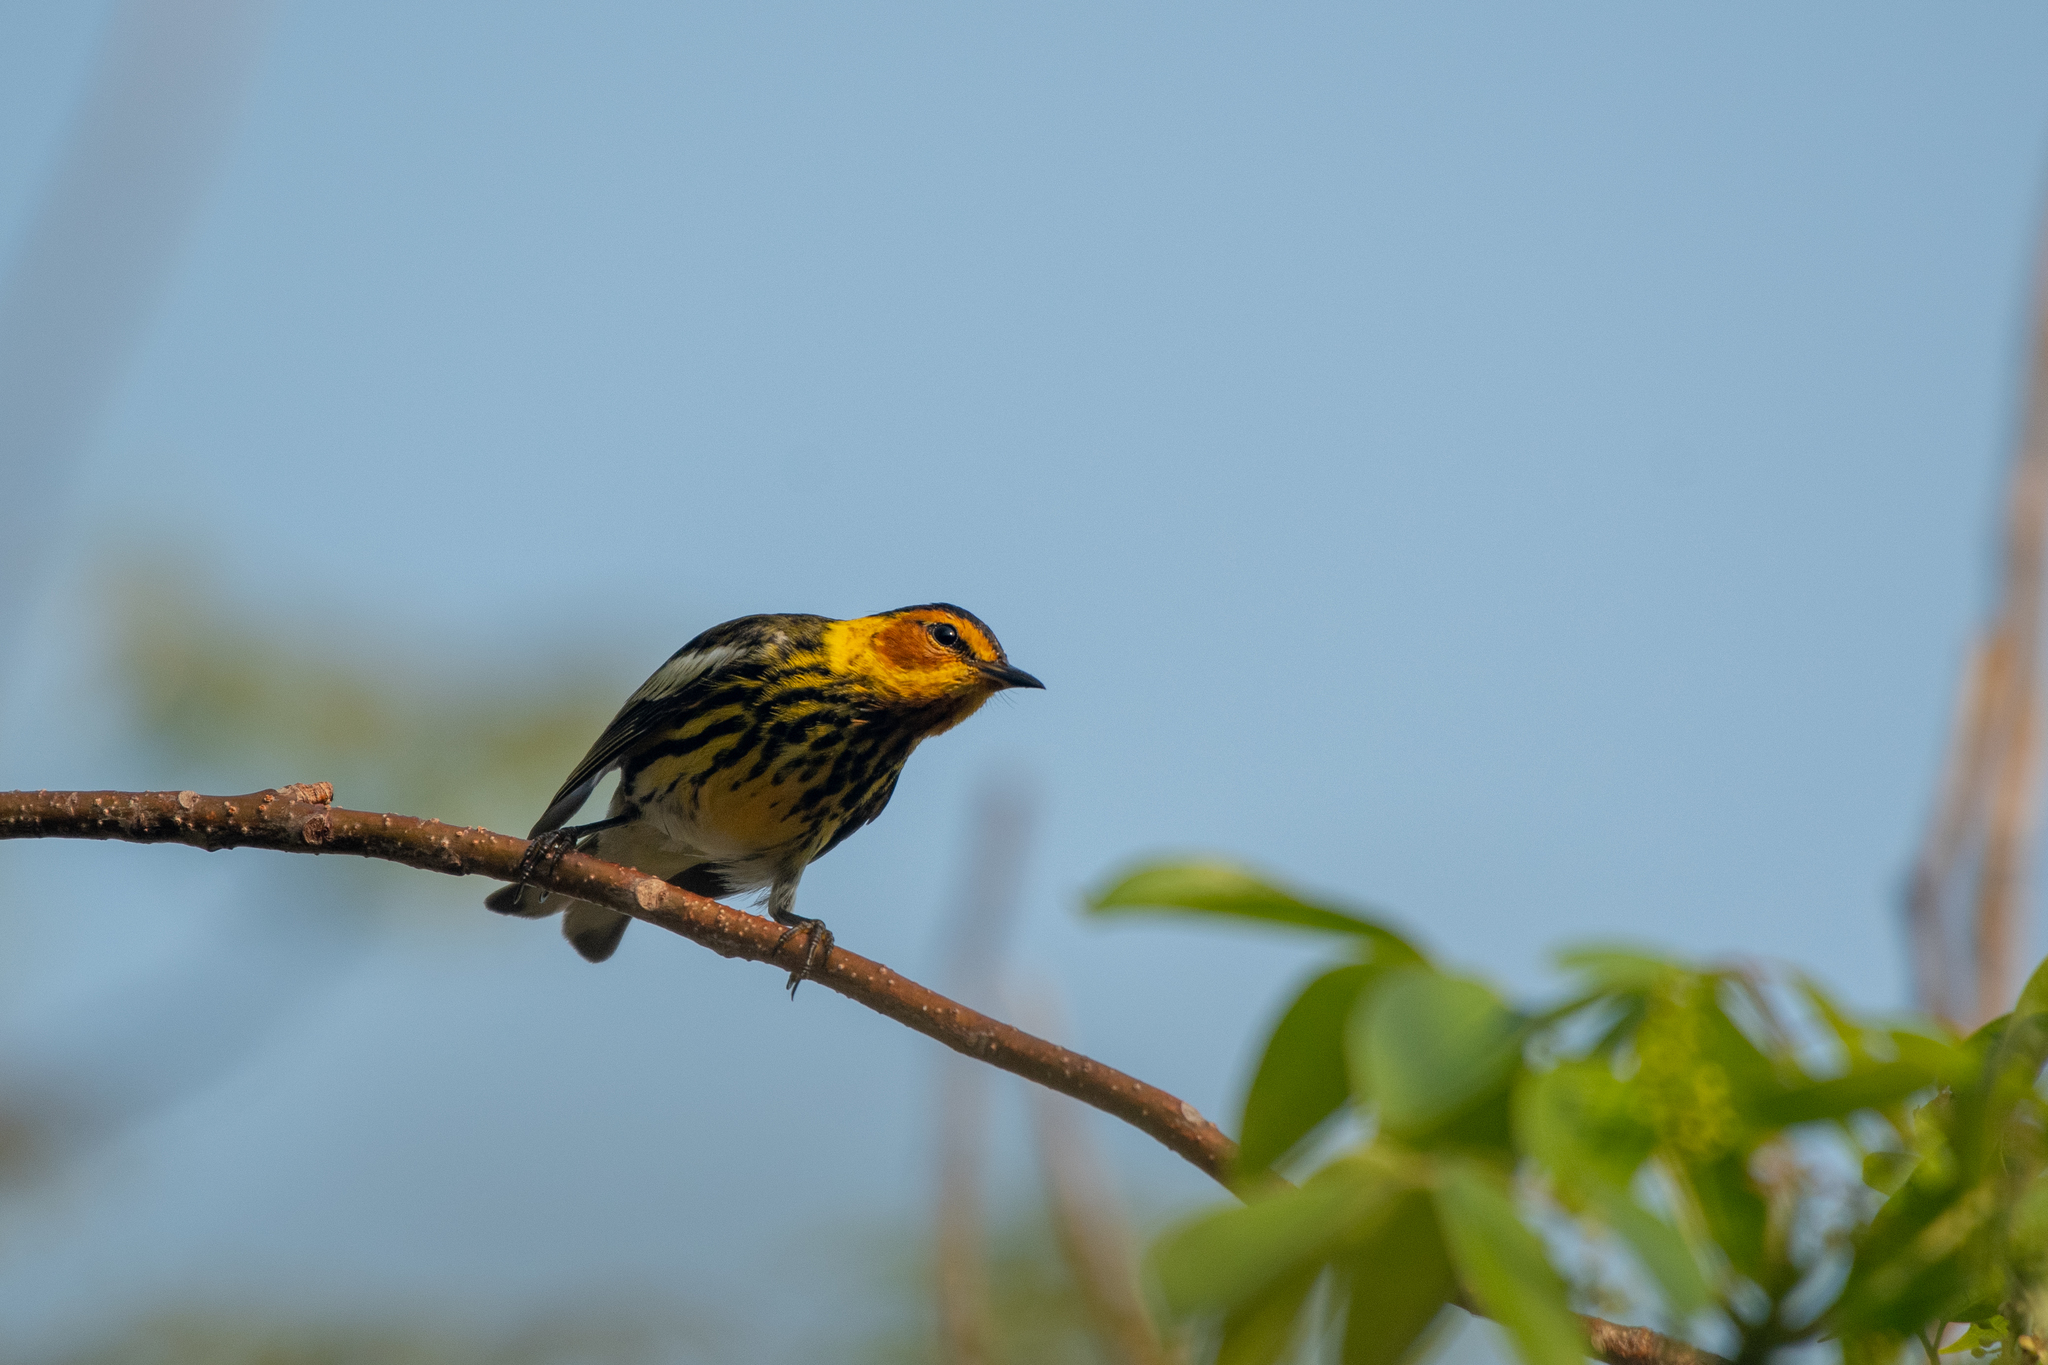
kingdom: Animalia
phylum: Chordata
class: Aves
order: Passeriformes
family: Parulidae
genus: Setophaga
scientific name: Setophaga tigrina
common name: Cape may warbler
